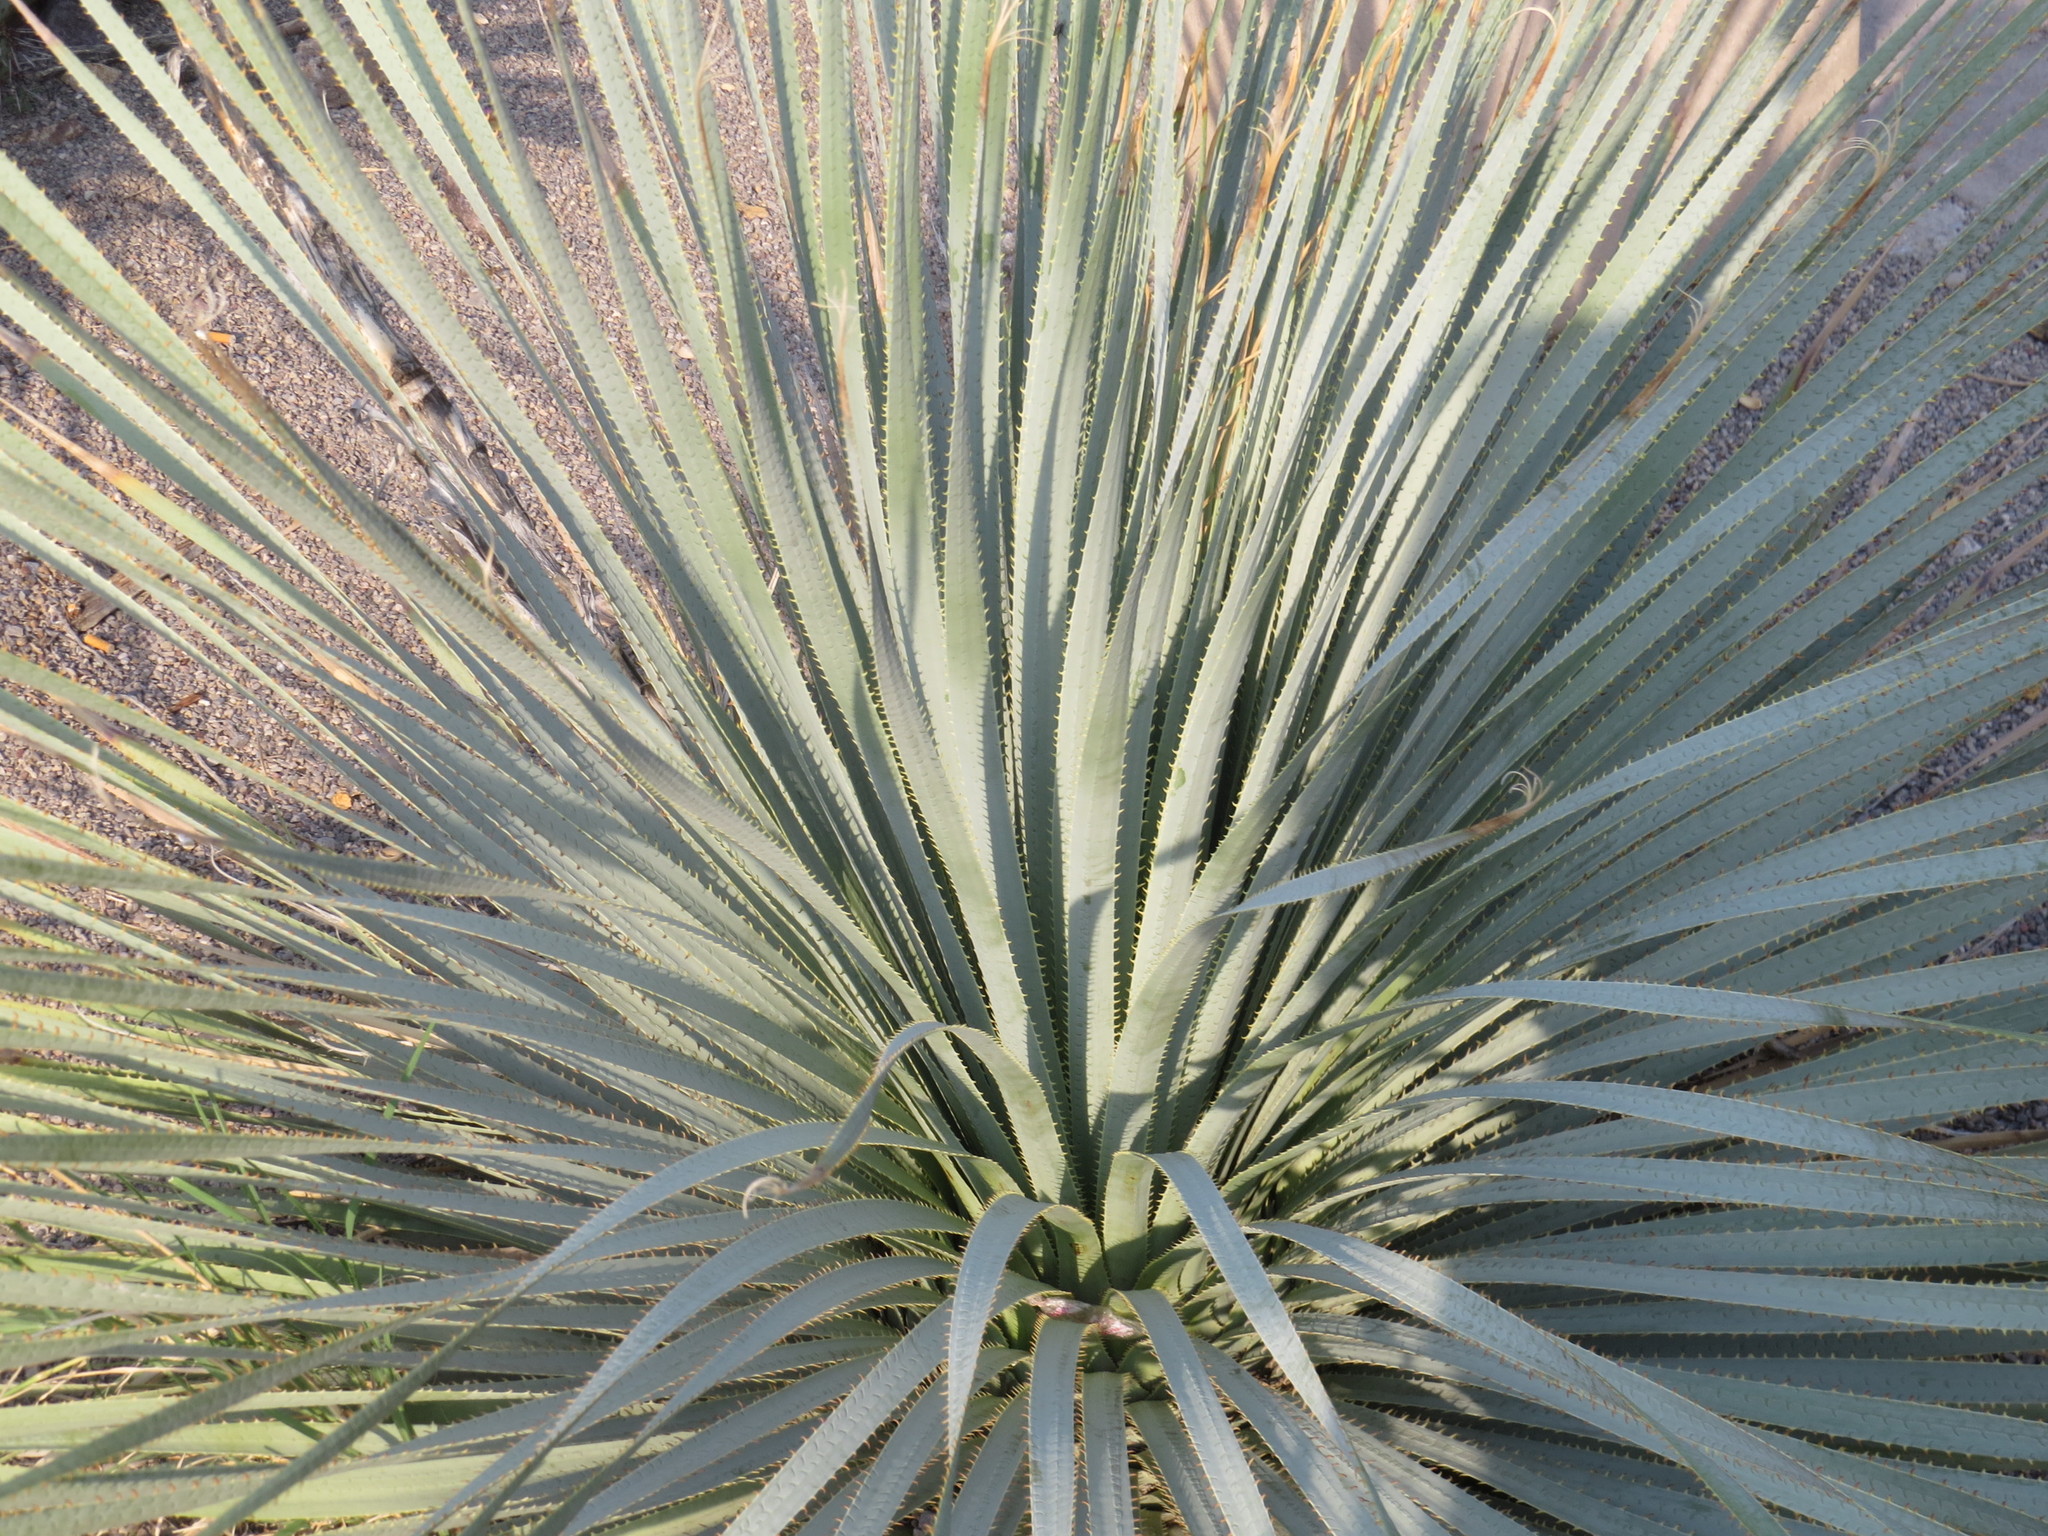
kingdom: Plantae
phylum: Tracheophyta
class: Liliopsida
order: Asparagales
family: Asparagaceae
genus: Dasylirion
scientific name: Dasylirion wheeleri
